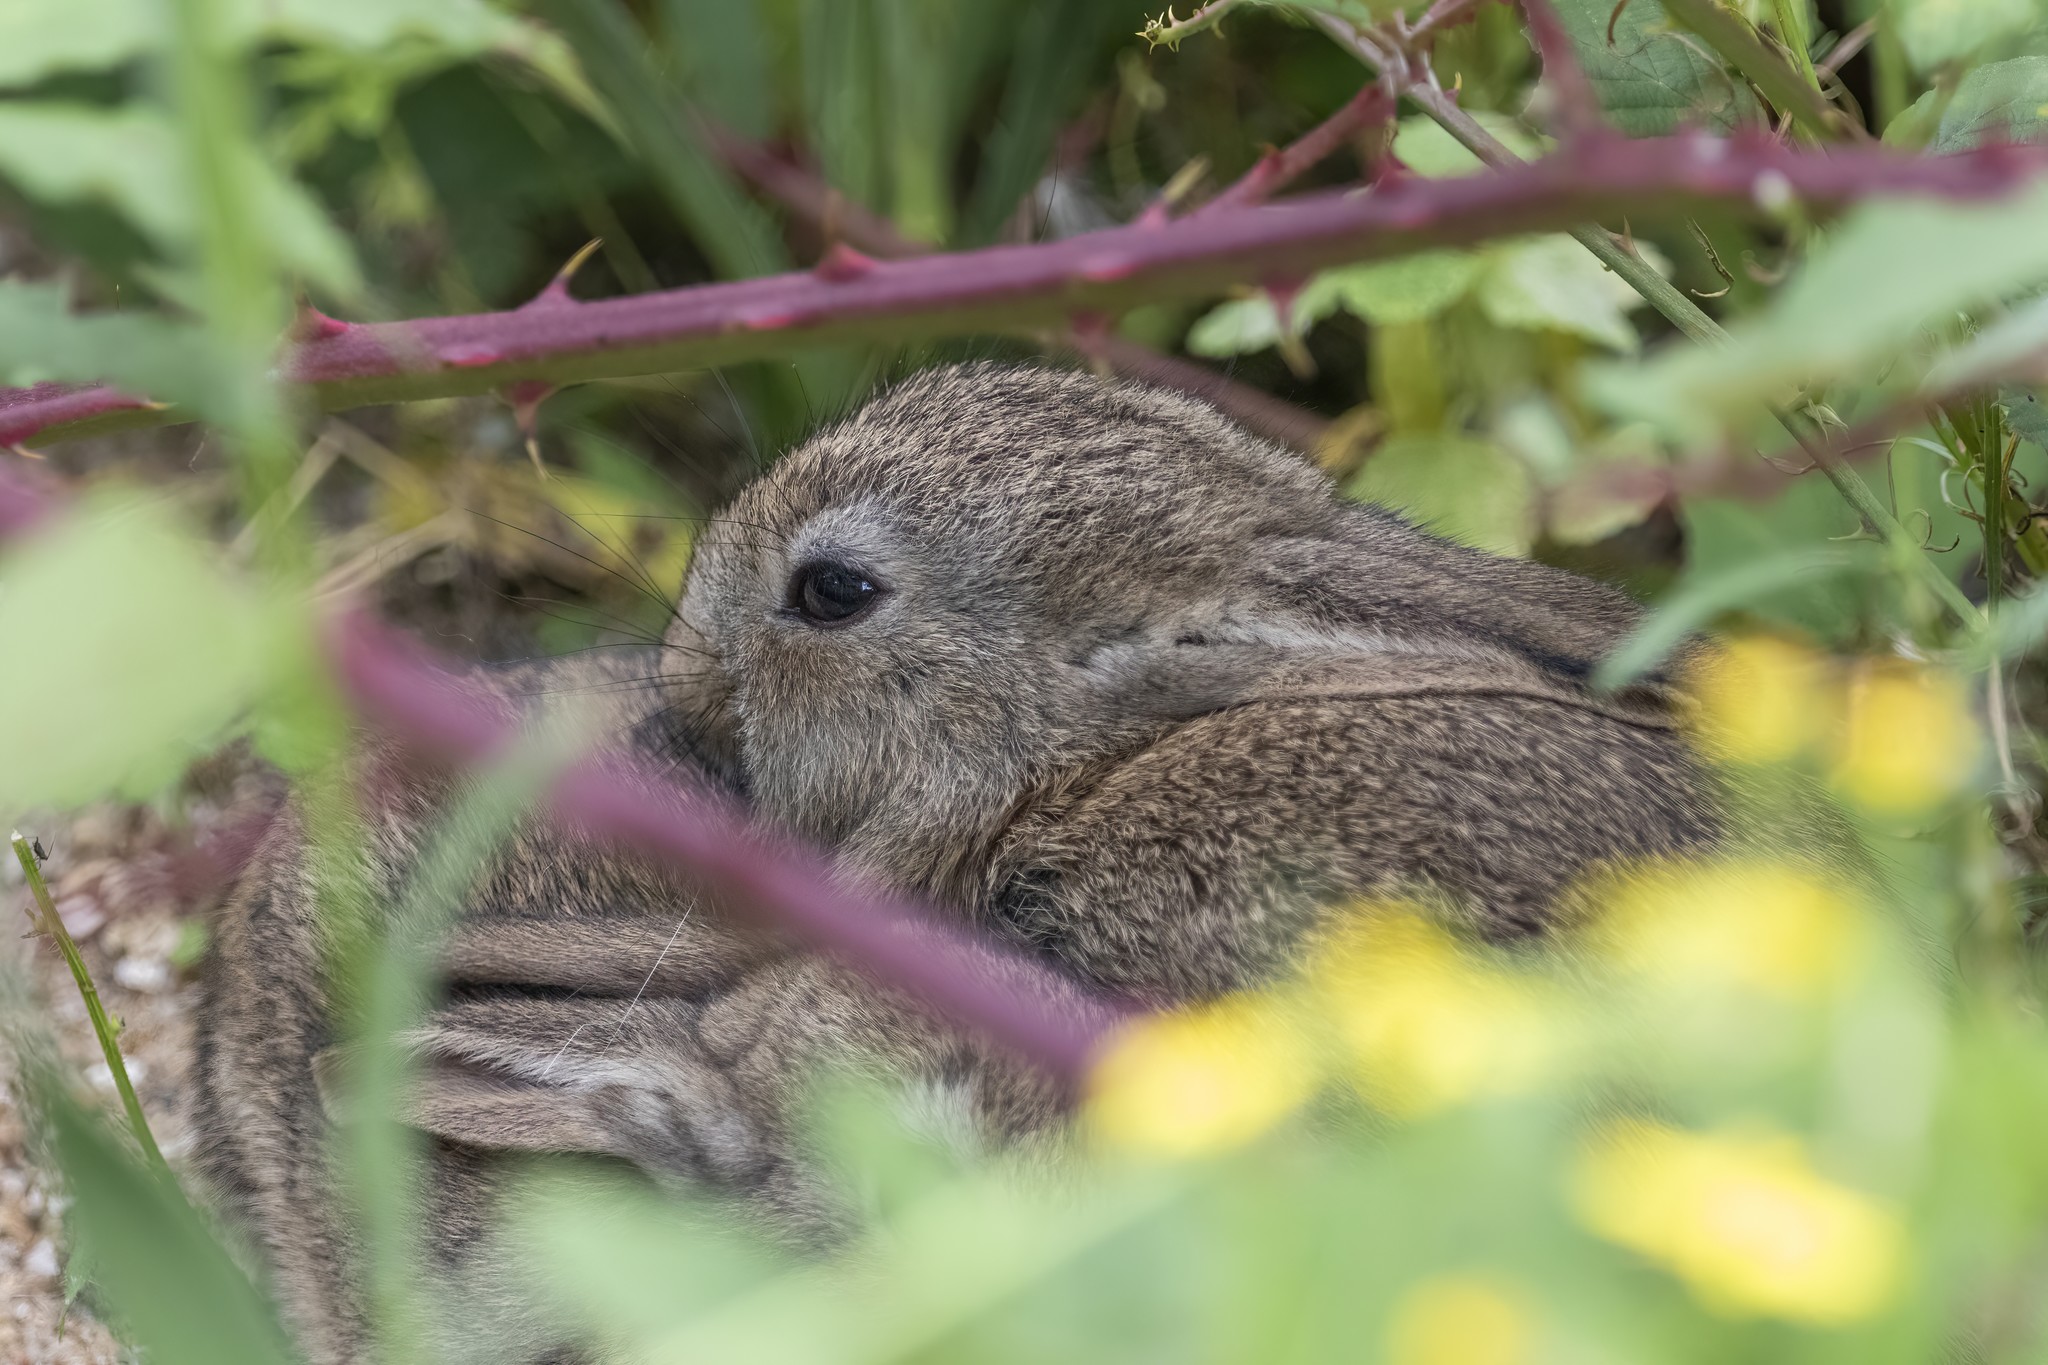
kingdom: Animalia
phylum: Chordata
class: Mammalia
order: Lagomorpha
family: Leporidae
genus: Oryctolagus
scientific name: Oryctolagus cuniculus
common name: European rabbit
